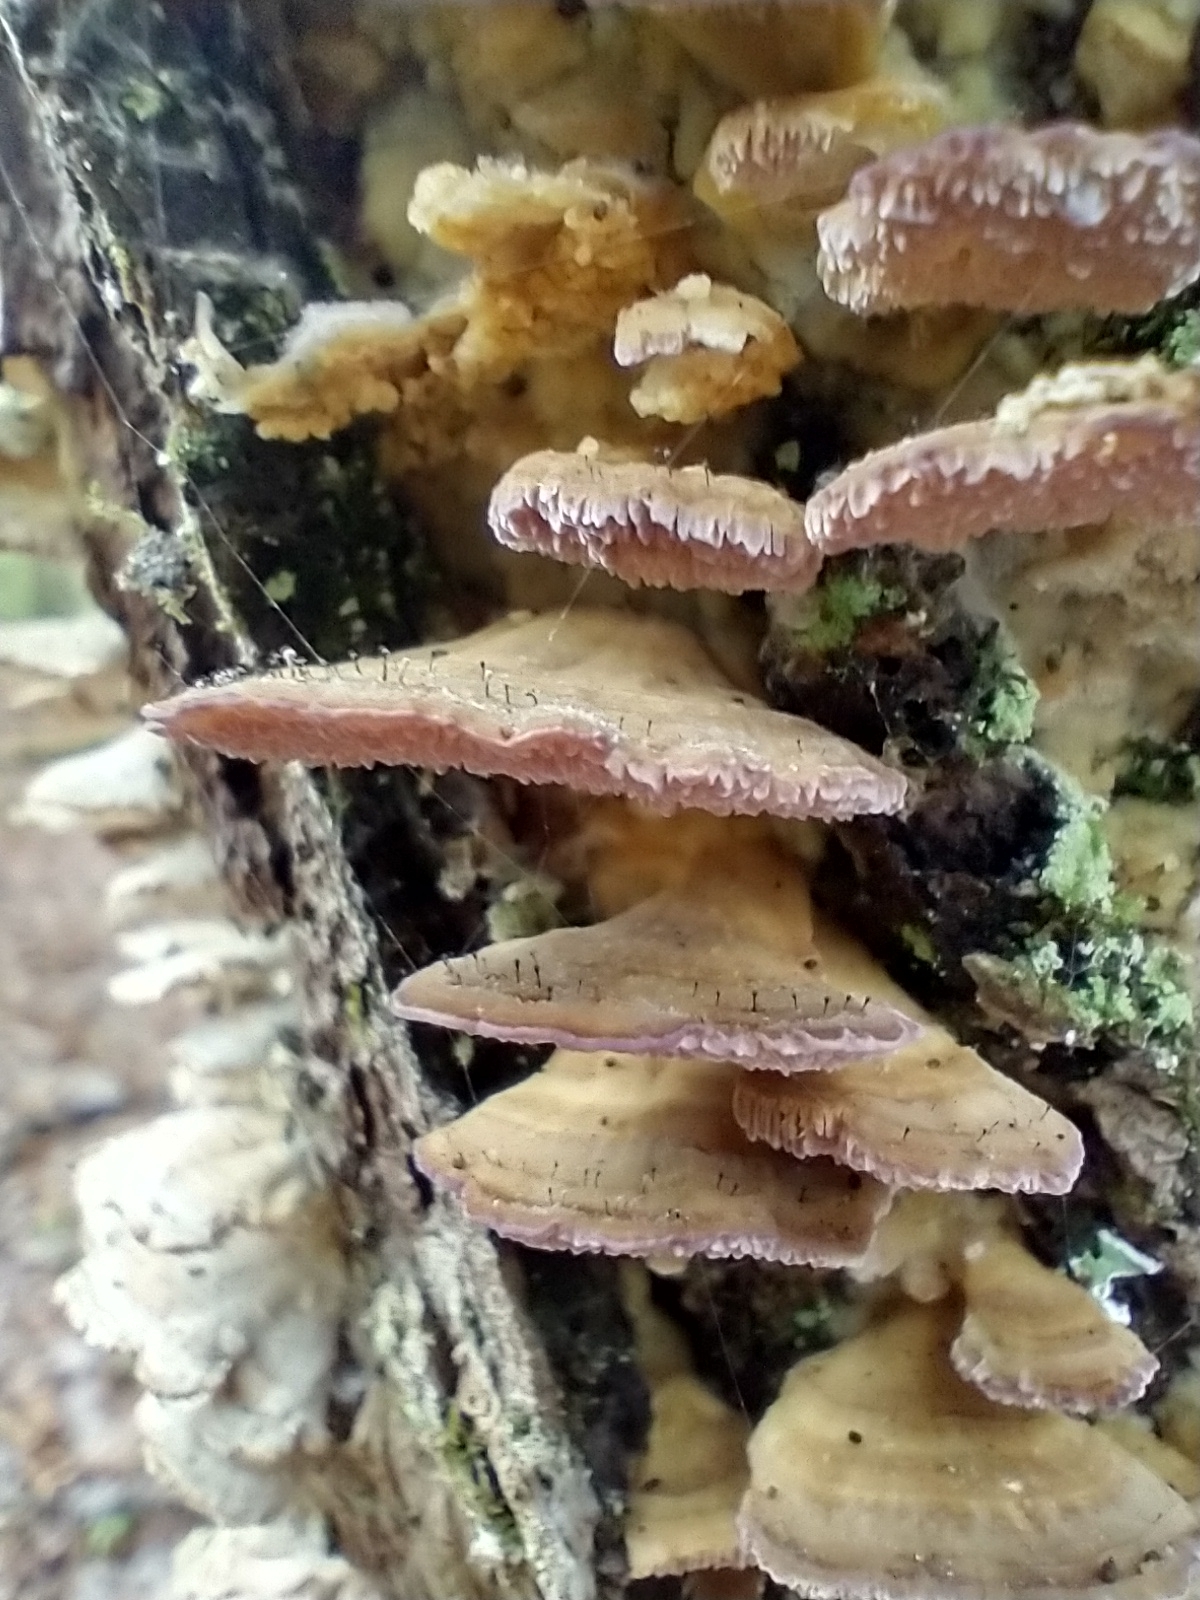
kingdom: Fungi
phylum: Ascomycota
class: Eurotiomycetes
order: Mycocaliciales
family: Mycocaliciaceae
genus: Phaeocalicium
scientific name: Phaeocalicium polyporaeum
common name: Fairy pins
